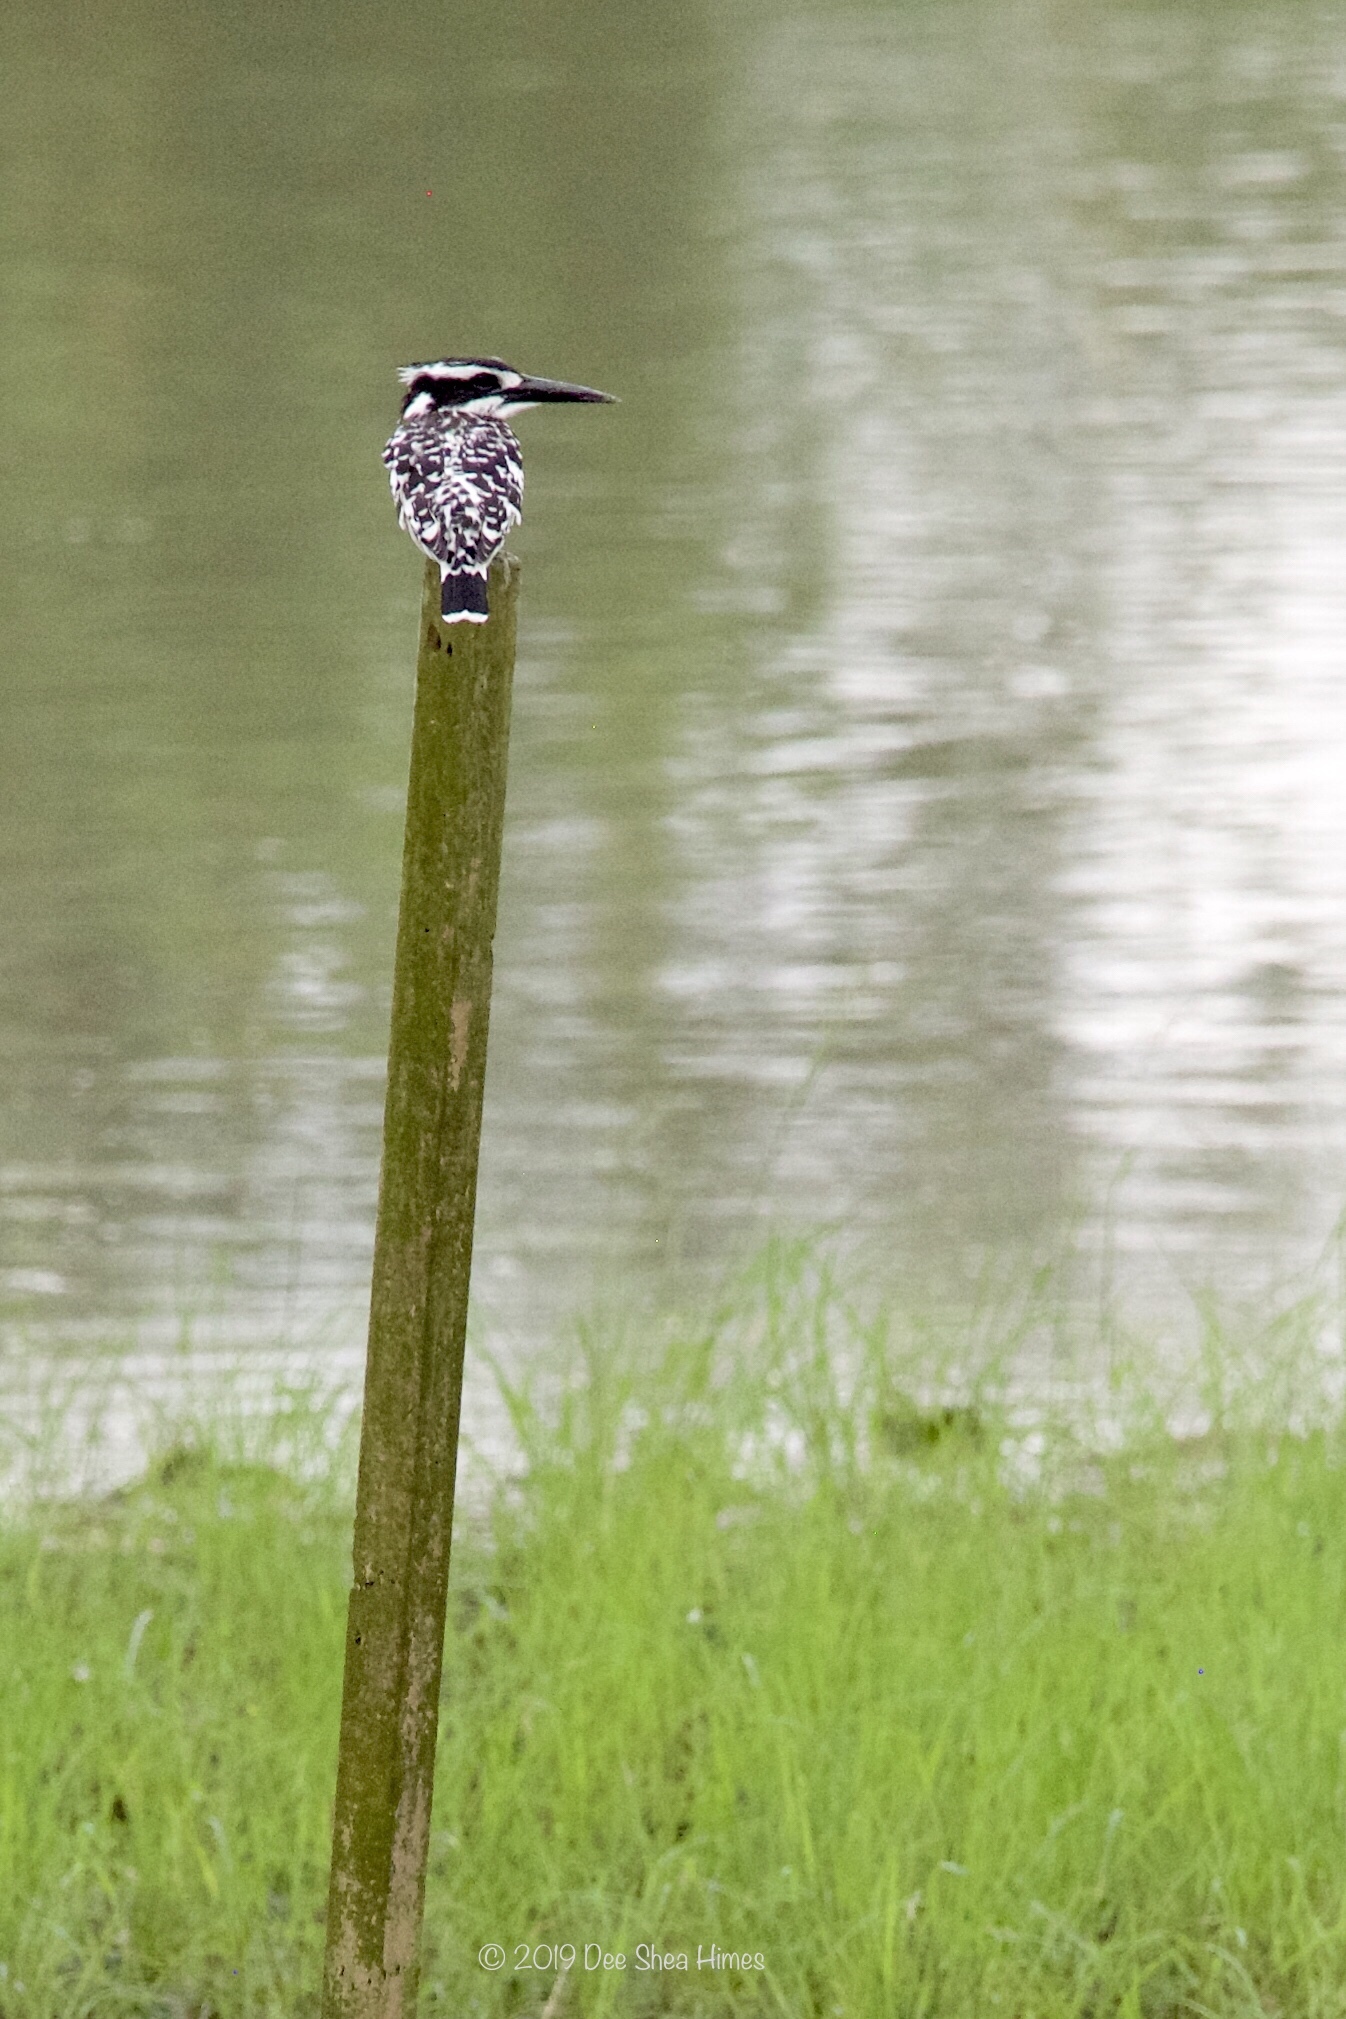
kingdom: Animalia
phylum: Chordata
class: Aves
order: Coraciiformes
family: Alcedinidae
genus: Ceryle
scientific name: Ceryle rudis
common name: Pied kingfisher
